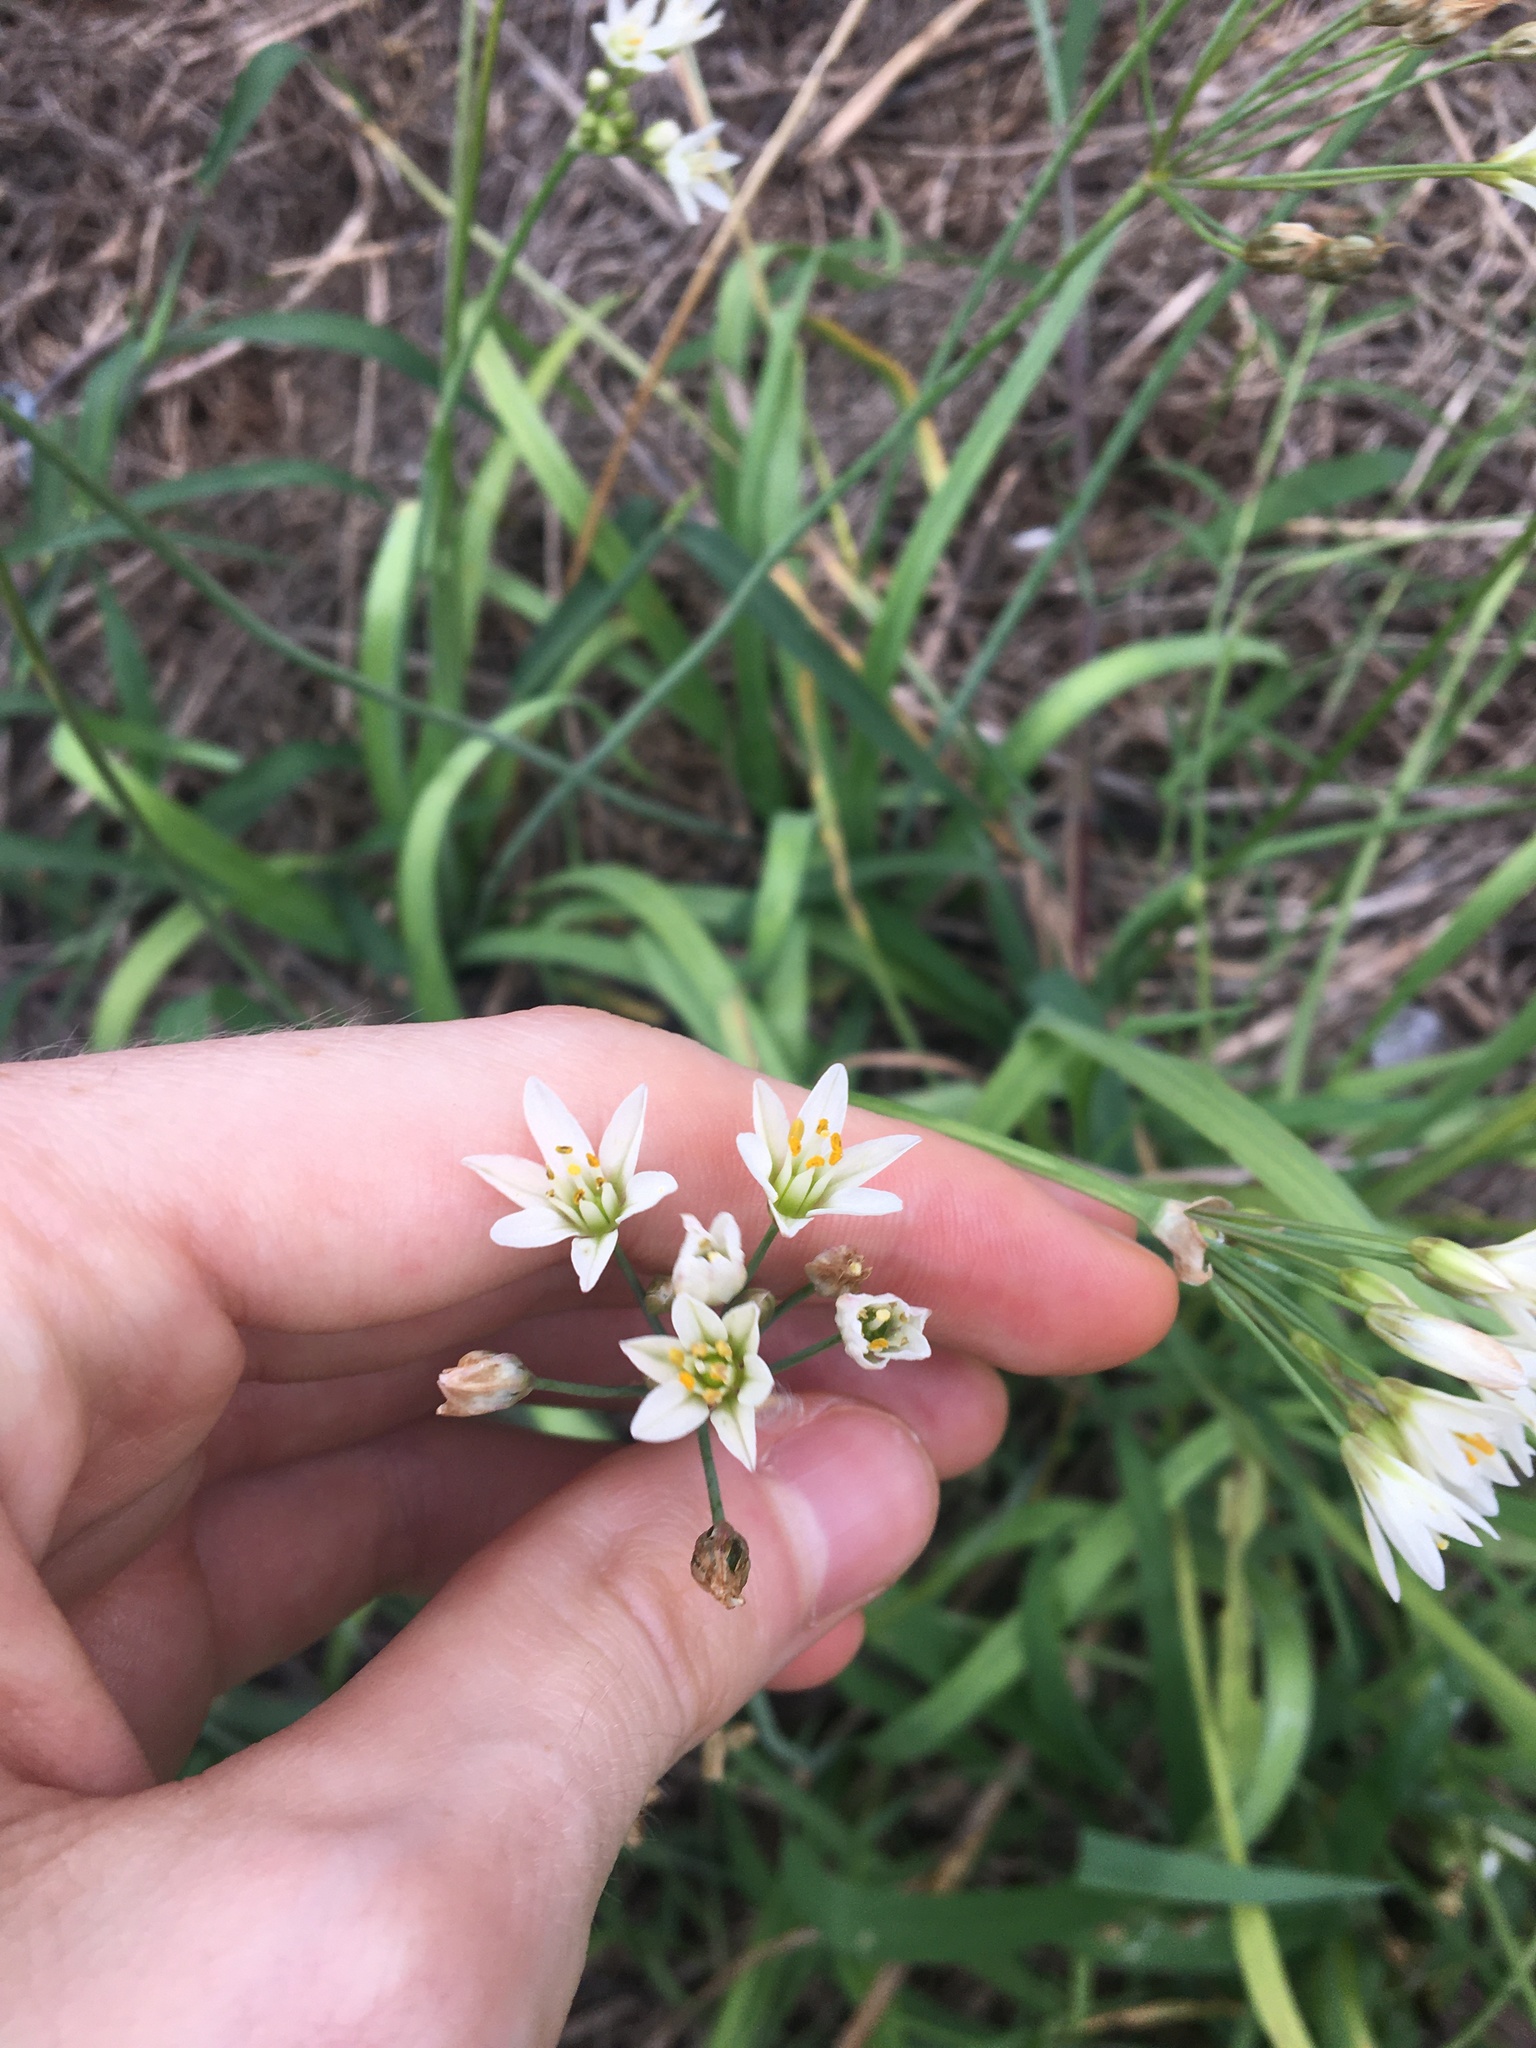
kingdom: Plantae
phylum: Tracheophyta
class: Liliopsida
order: Asparagales
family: Amaryllidaceae
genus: Nothoscordum
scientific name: Nothoscordum gracile
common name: Slender false garlic
